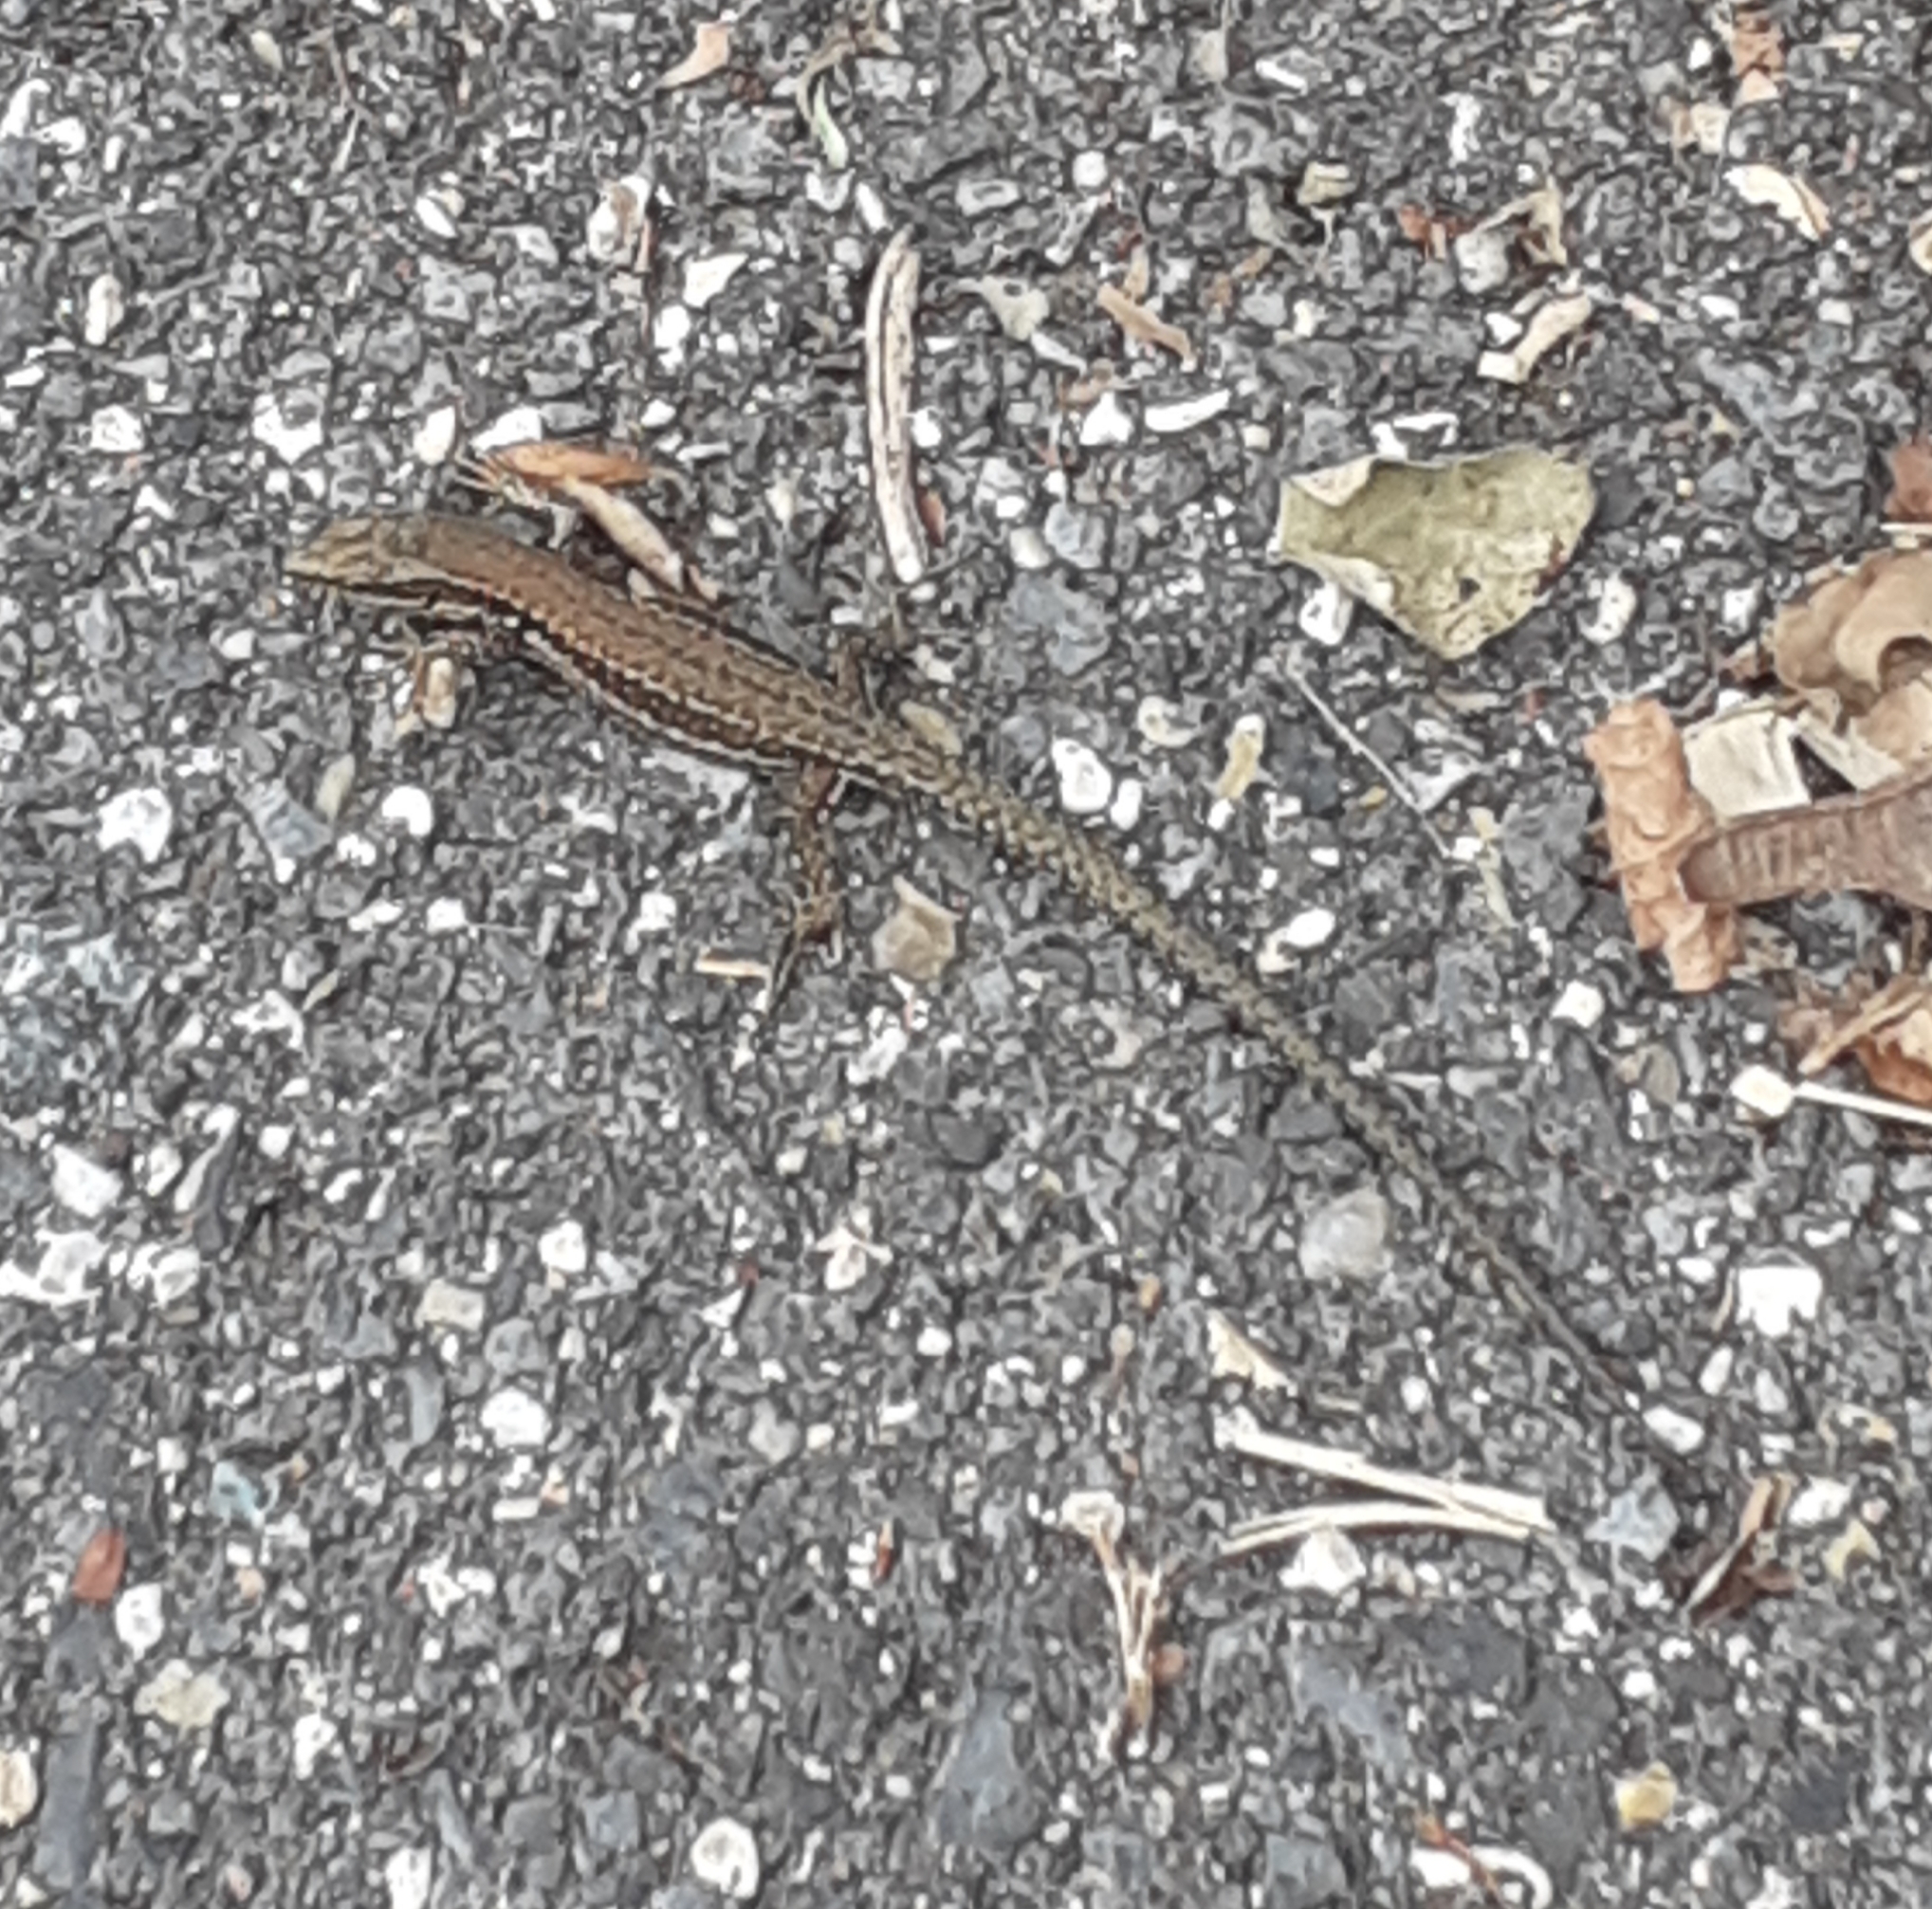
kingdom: Animalia
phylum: Chordata
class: Squamata
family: Lacertidae
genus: Podarcis
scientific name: Podarcis muralis
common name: Common wall lizard
